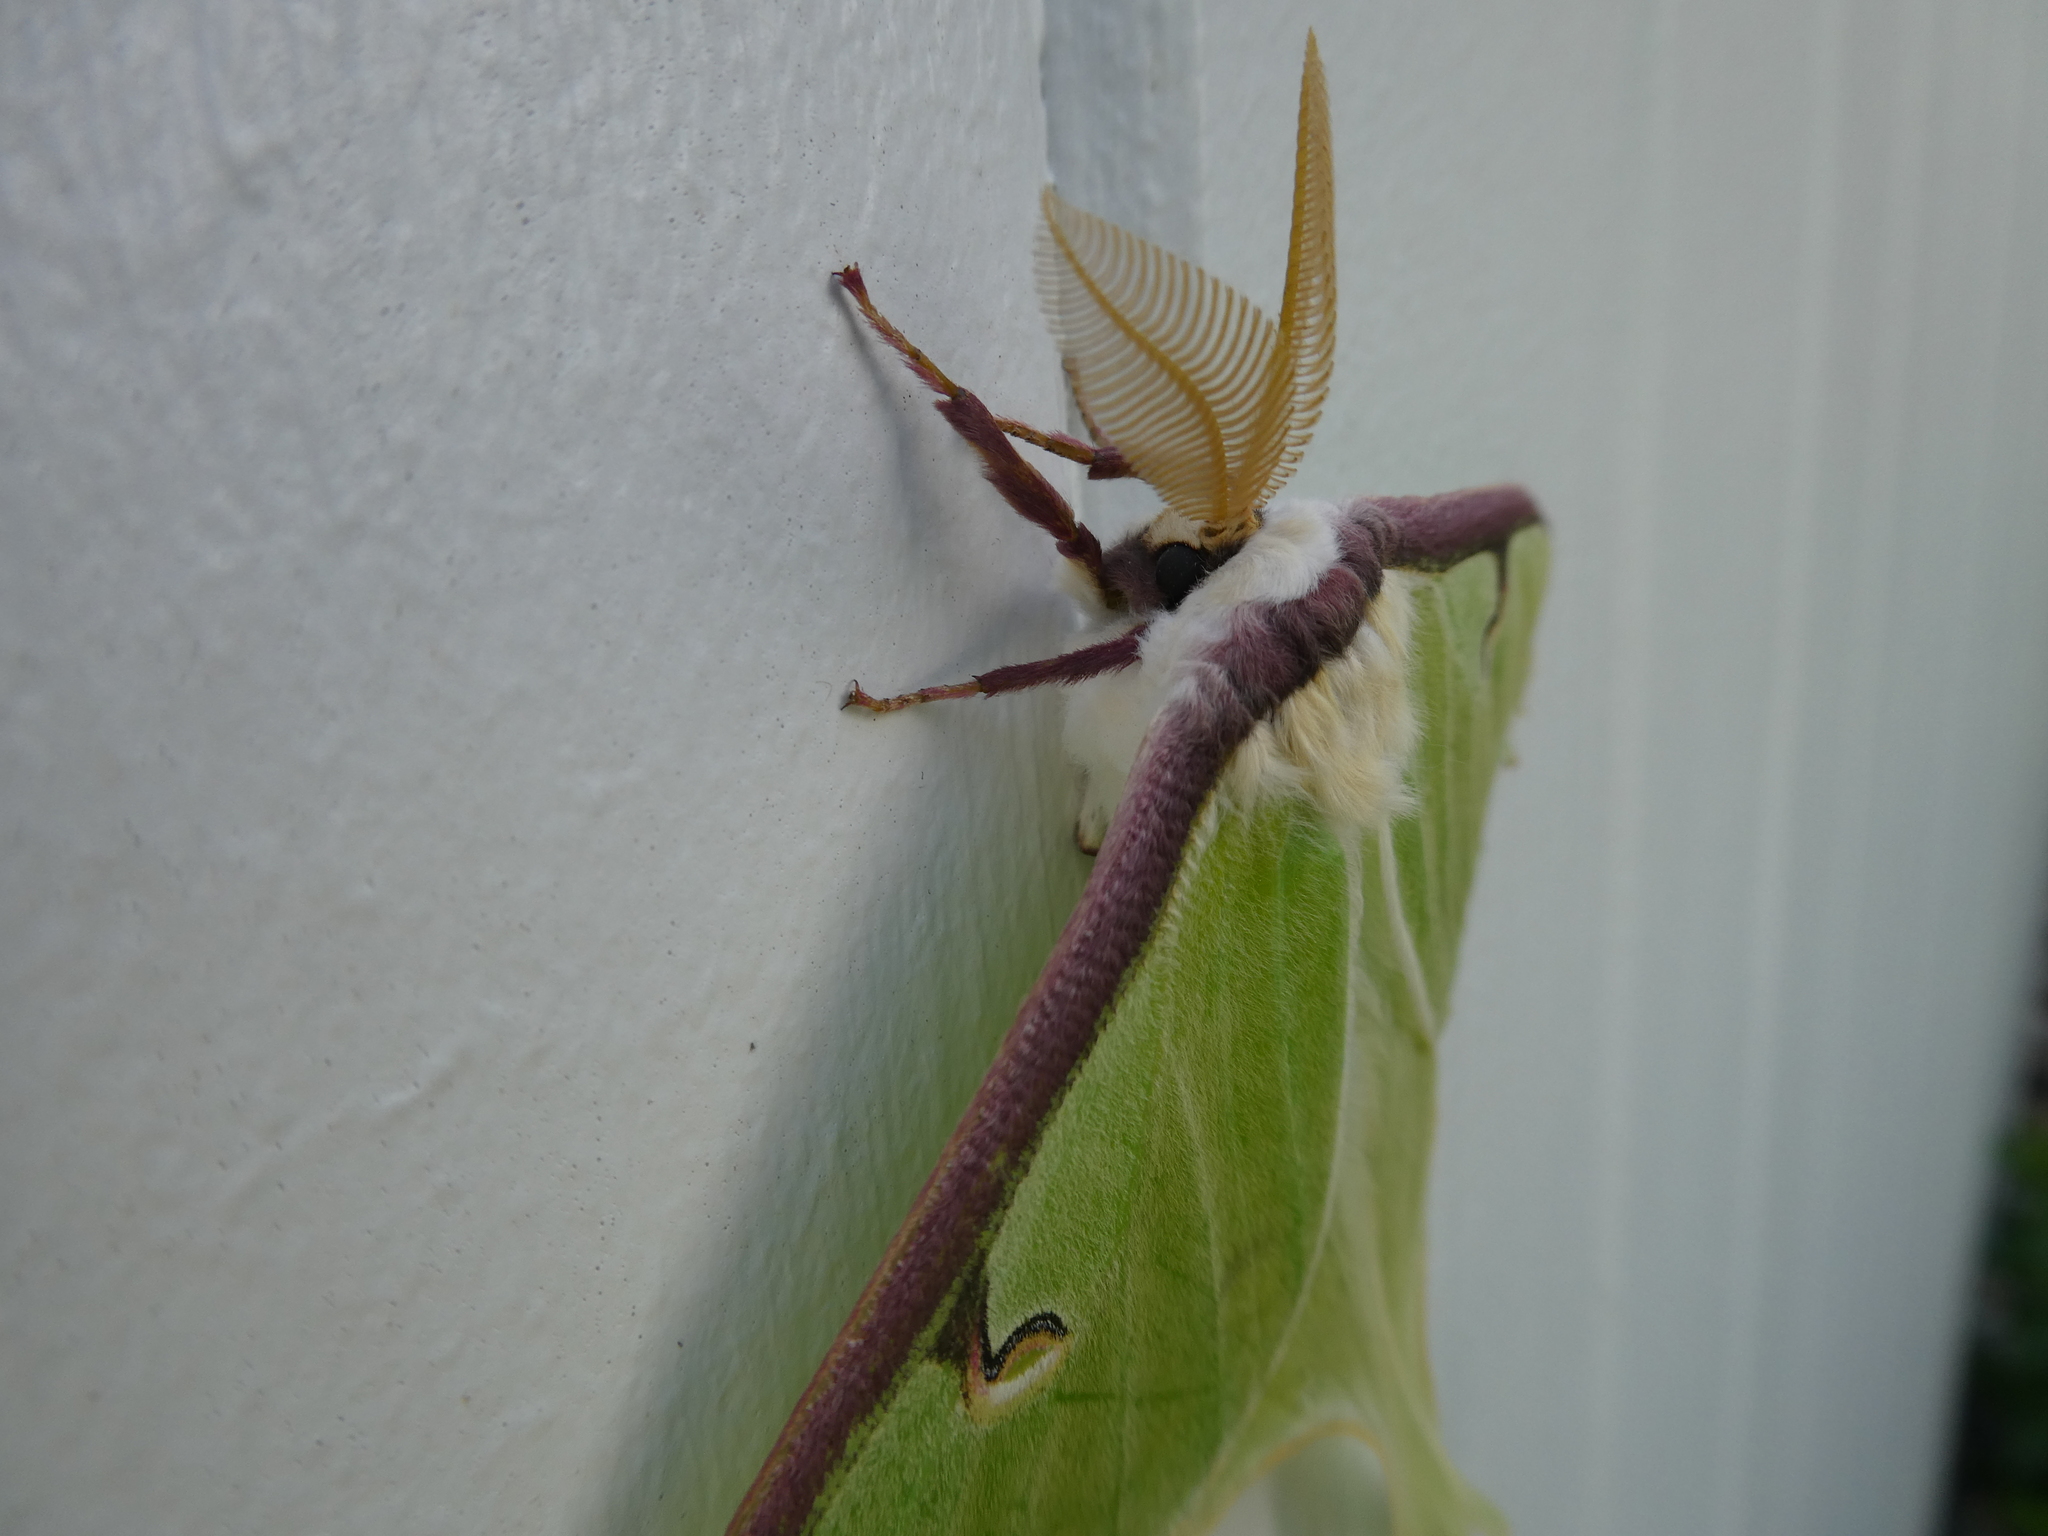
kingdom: Animalia
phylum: Arthropoda
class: Insecta
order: Lepidoptera
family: Saturniidae
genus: Actias
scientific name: Actias luna
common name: Luna moth
